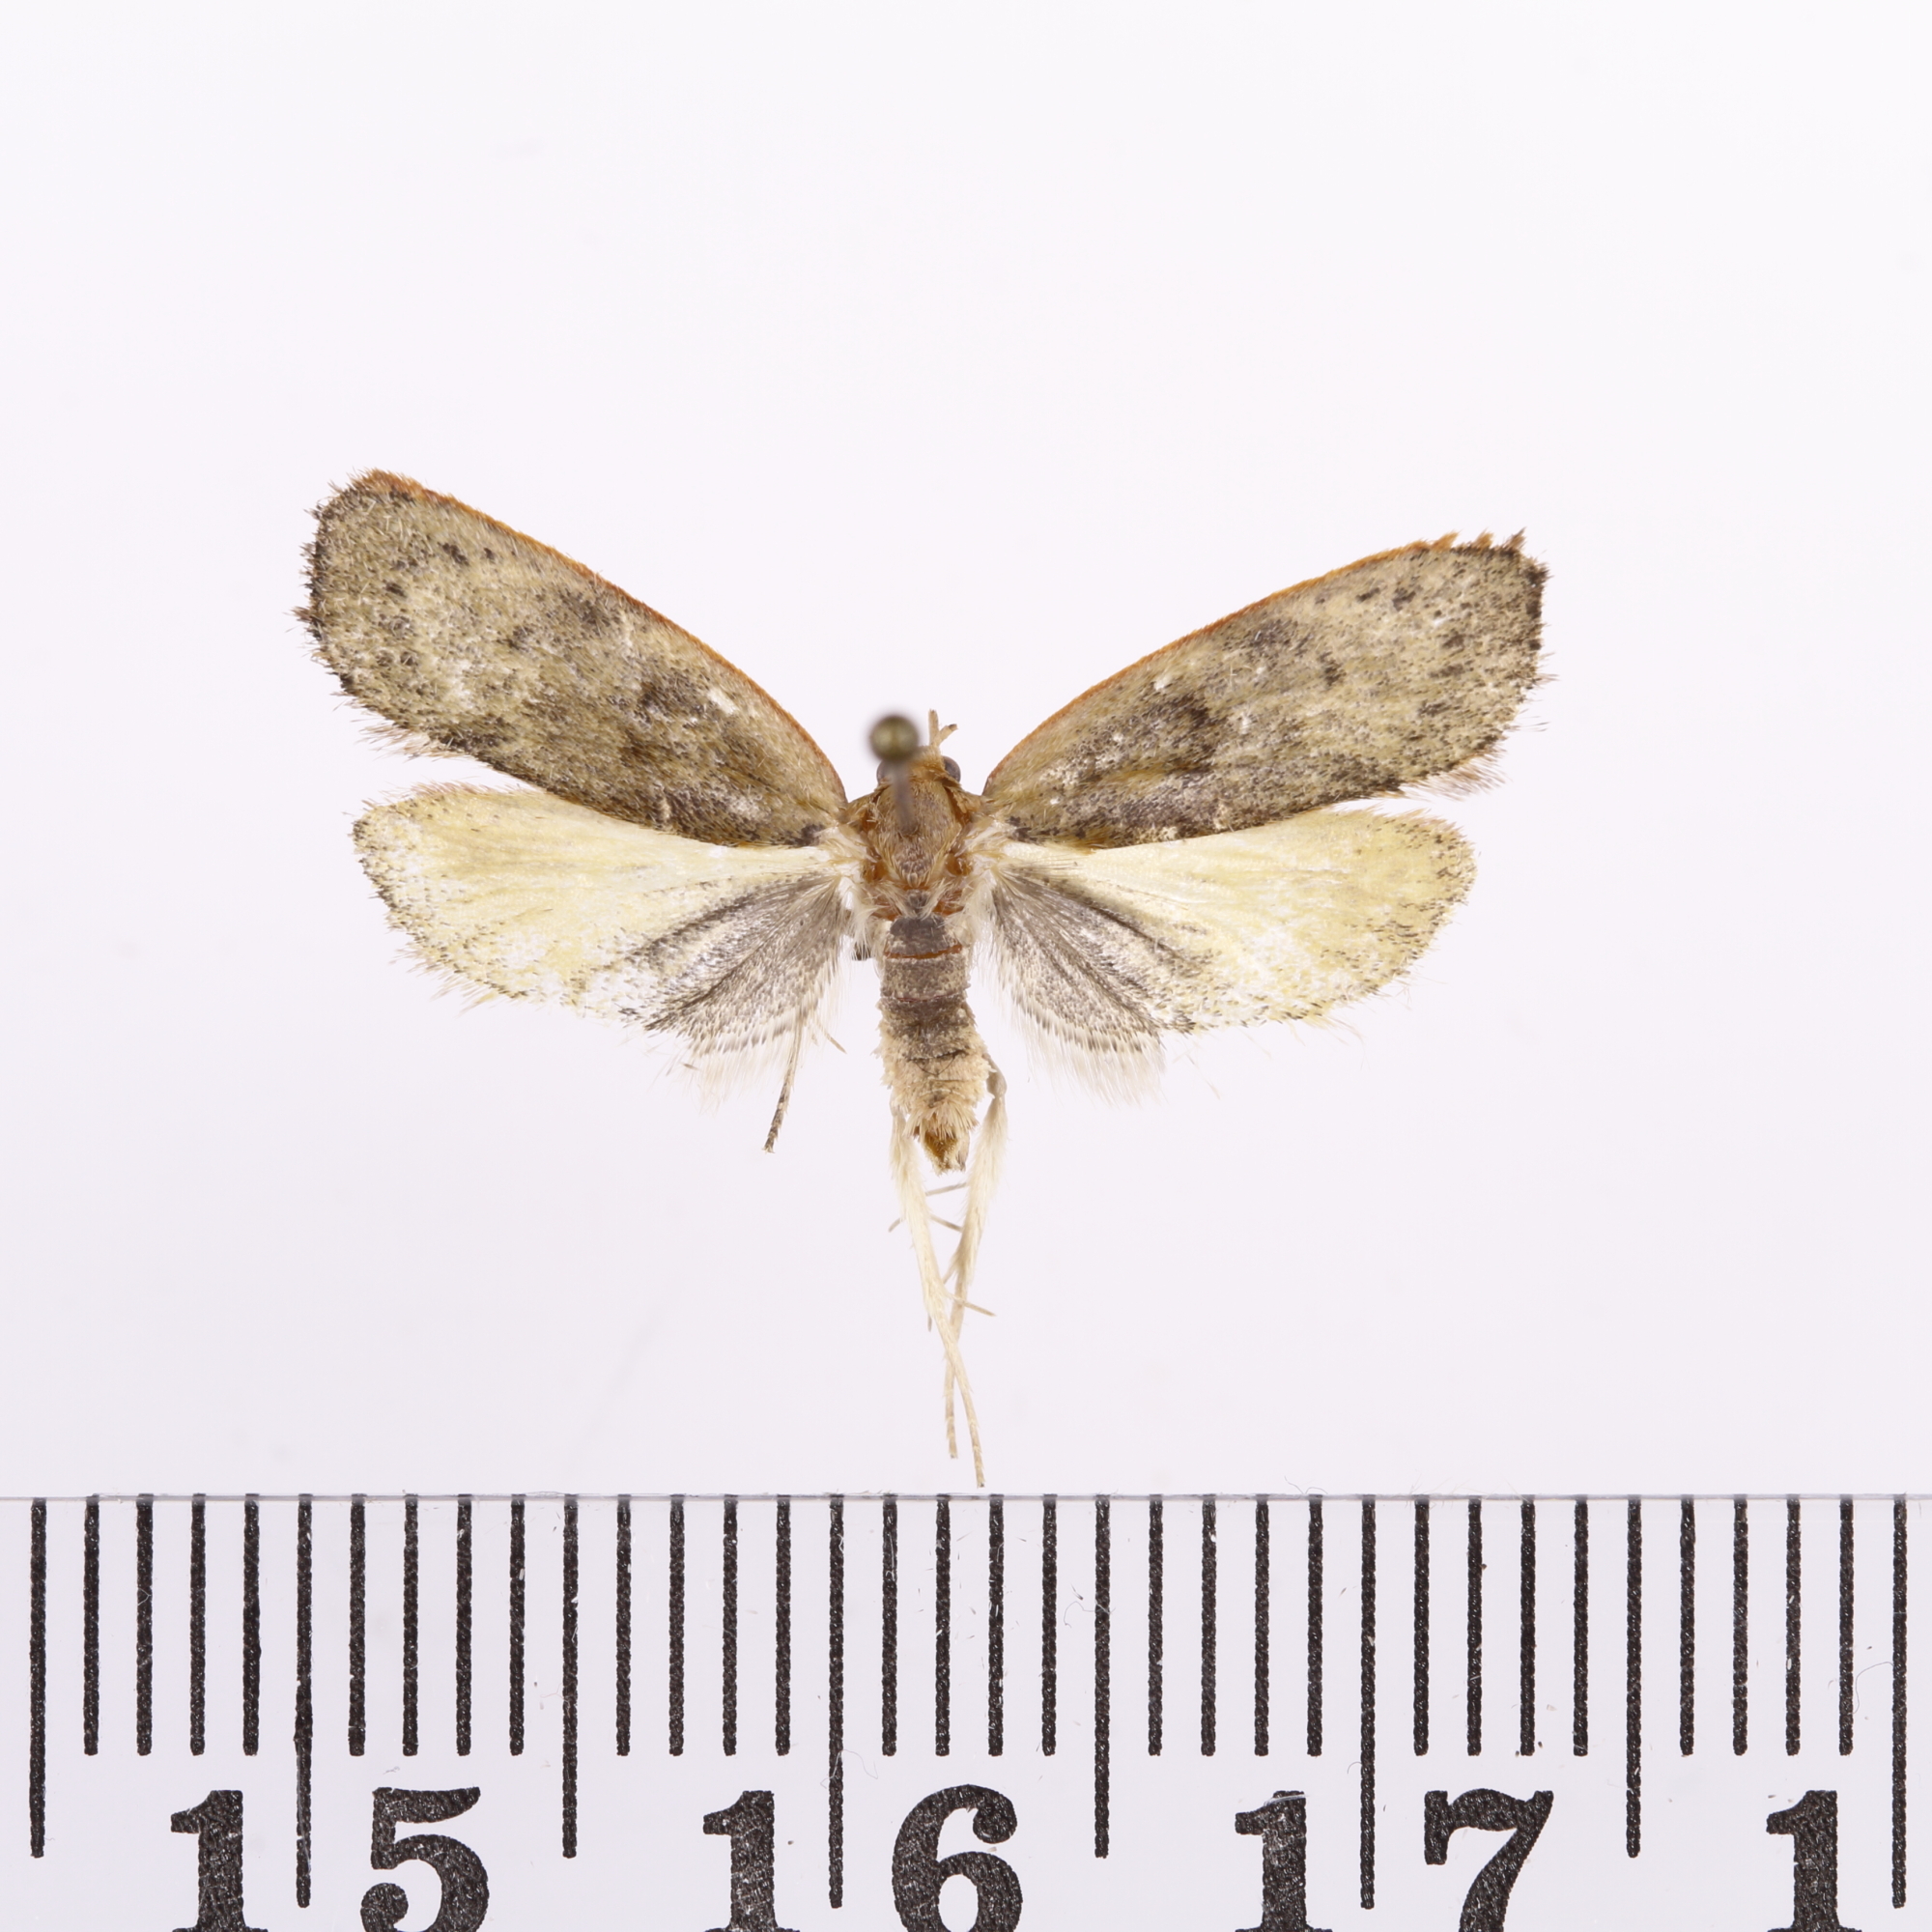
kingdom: Animalia
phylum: Arthropoda
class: Insecta
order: Lepidoptera
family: Depressariidae
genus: Phaeosaces
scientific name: Phaeosaces coarctatella
